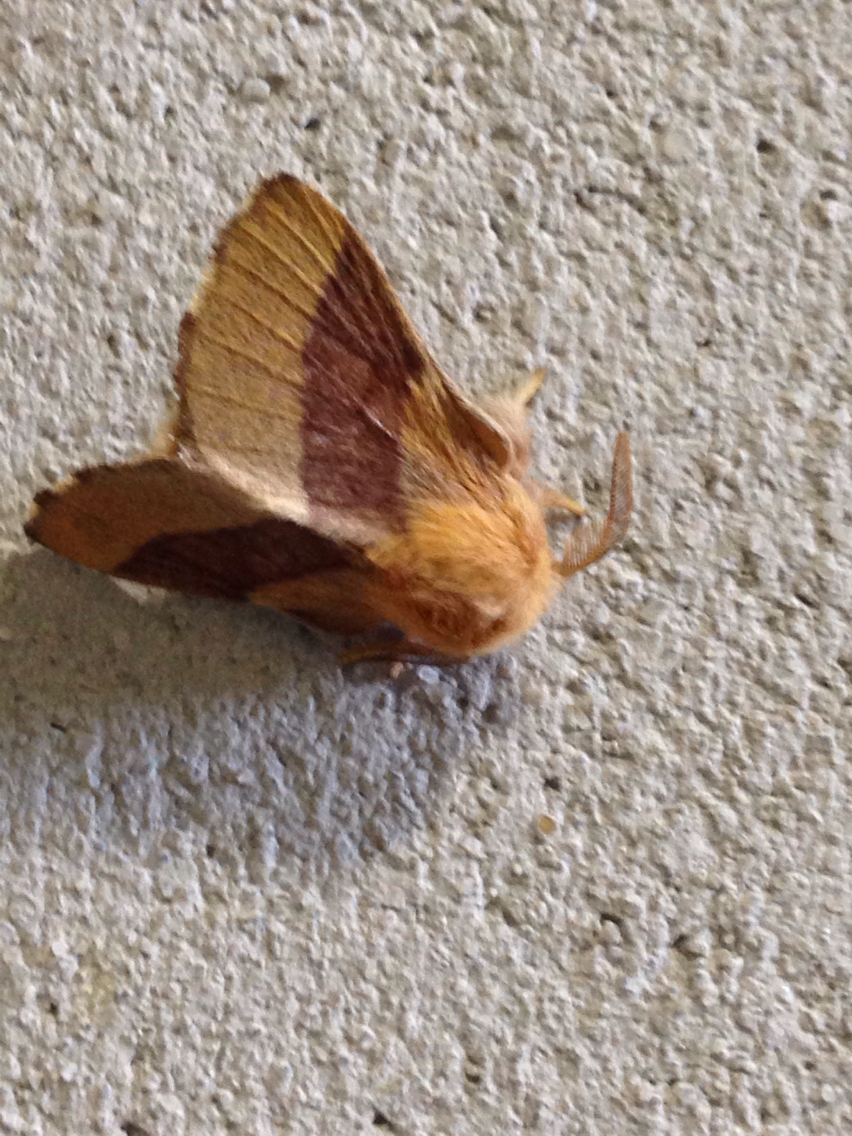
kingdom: Animalia
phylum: Arthropoda
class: Insecta
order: Lepidoptera
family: Lasiocampidae
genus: Malacosoma
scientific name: Malacosoma disstria
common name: Forest tent caterpillar
